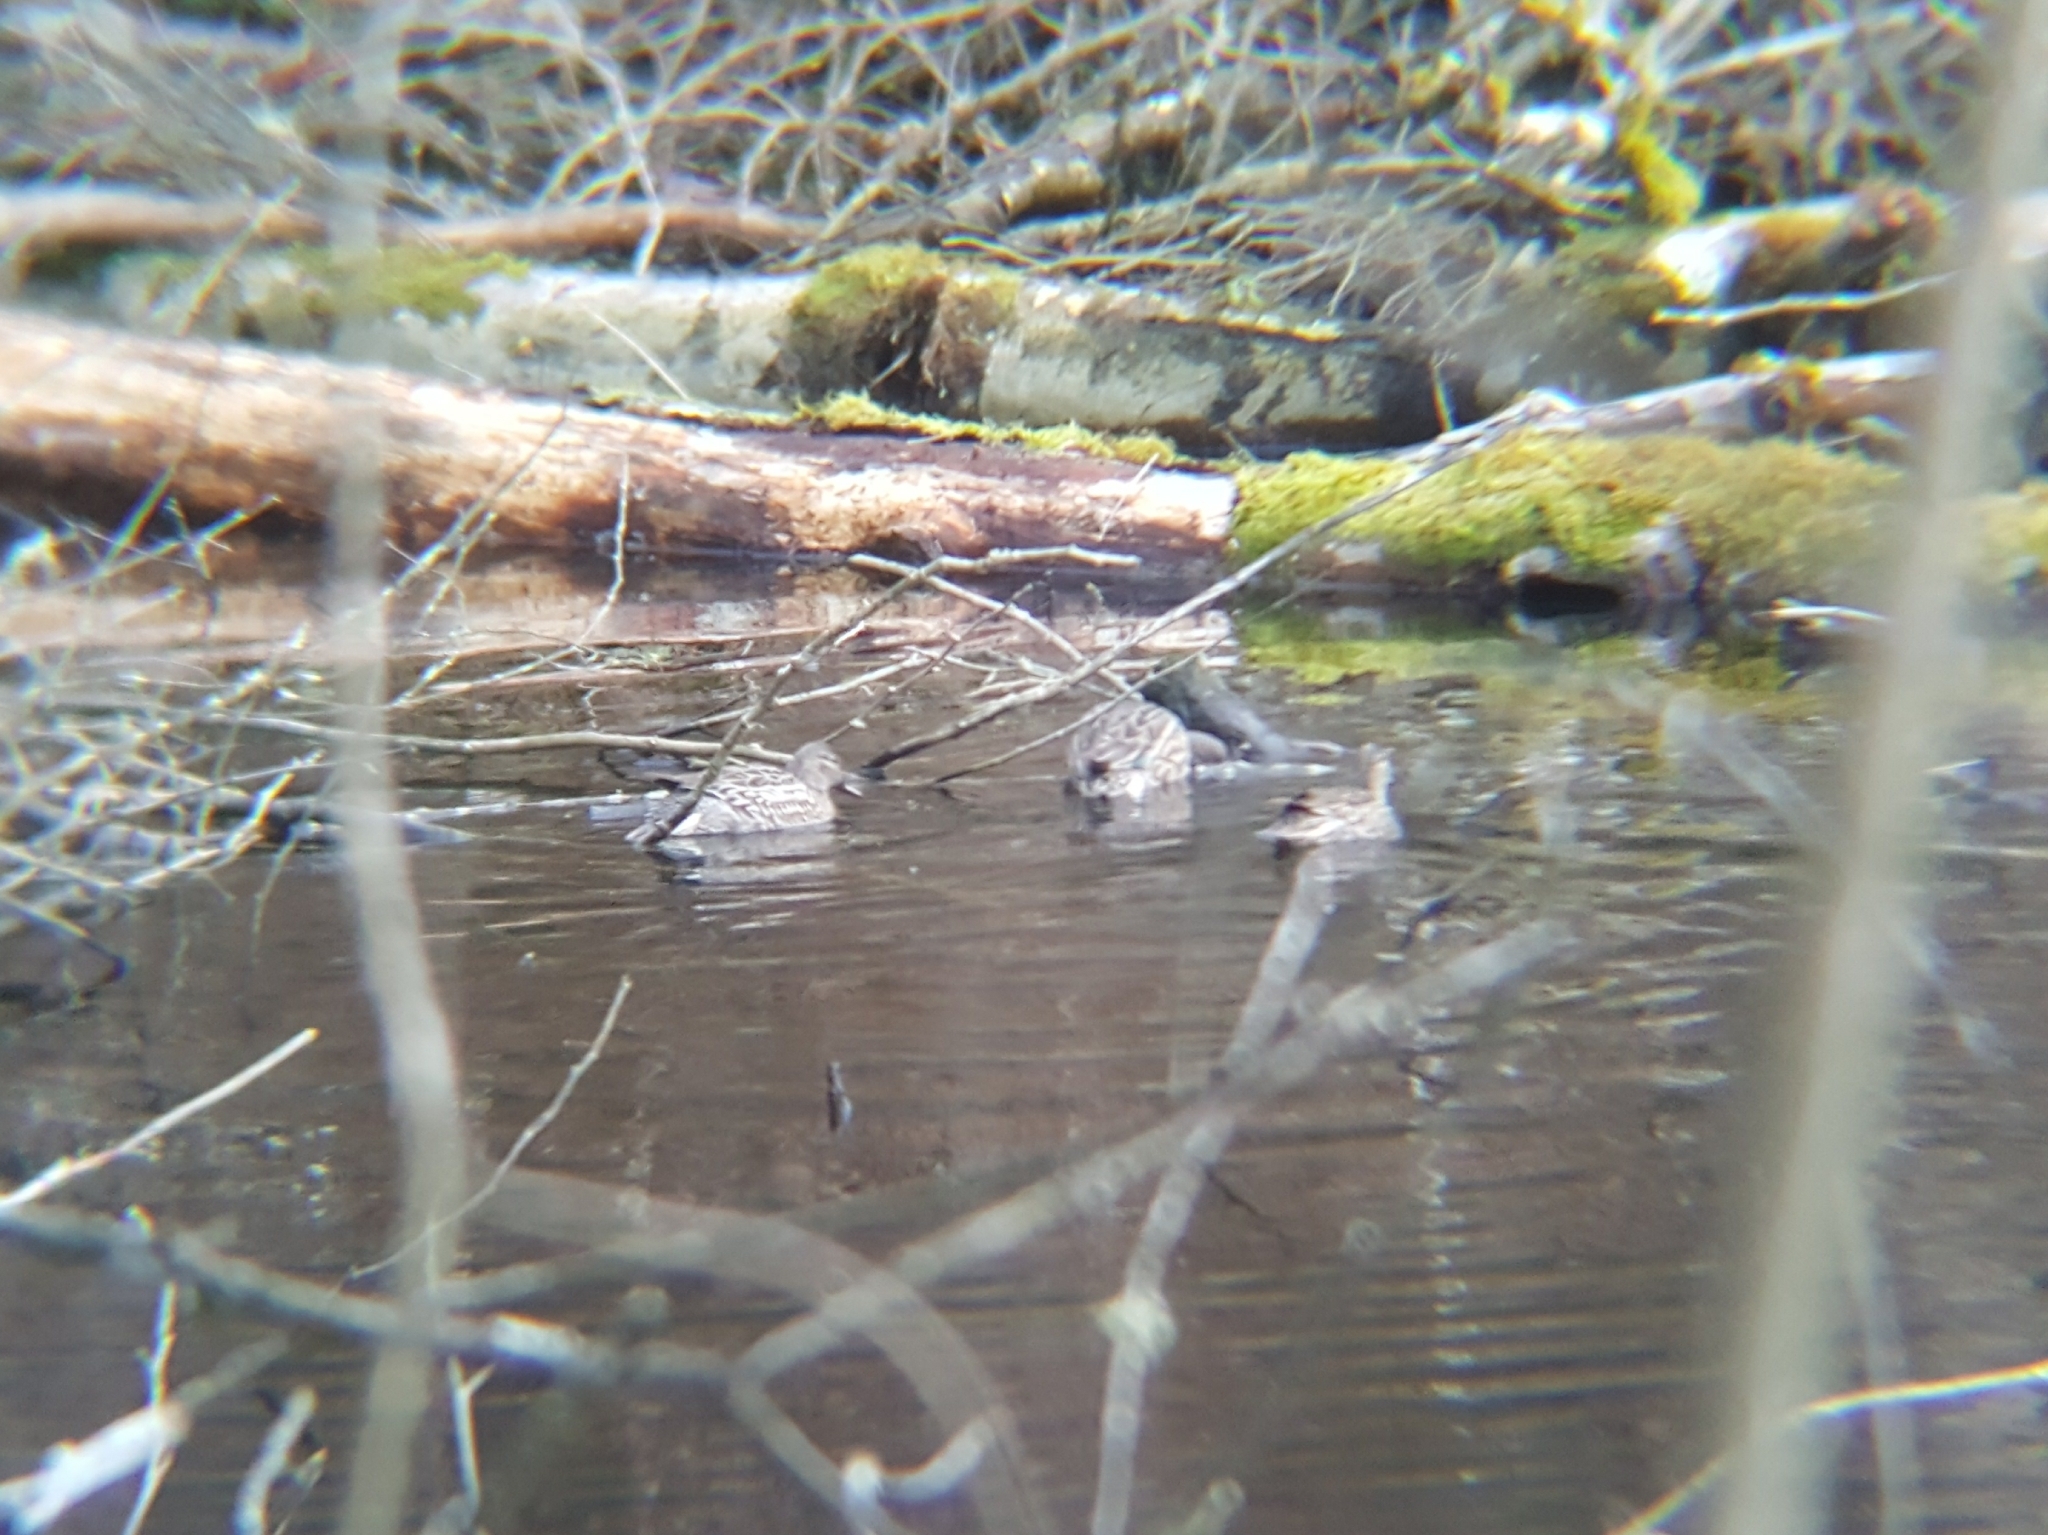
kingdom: Animalia
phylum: Chordata
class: Aves
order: Anseriformes
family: Anatidae
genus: Anas
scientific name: Anas crecca
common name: Eurasian teal
